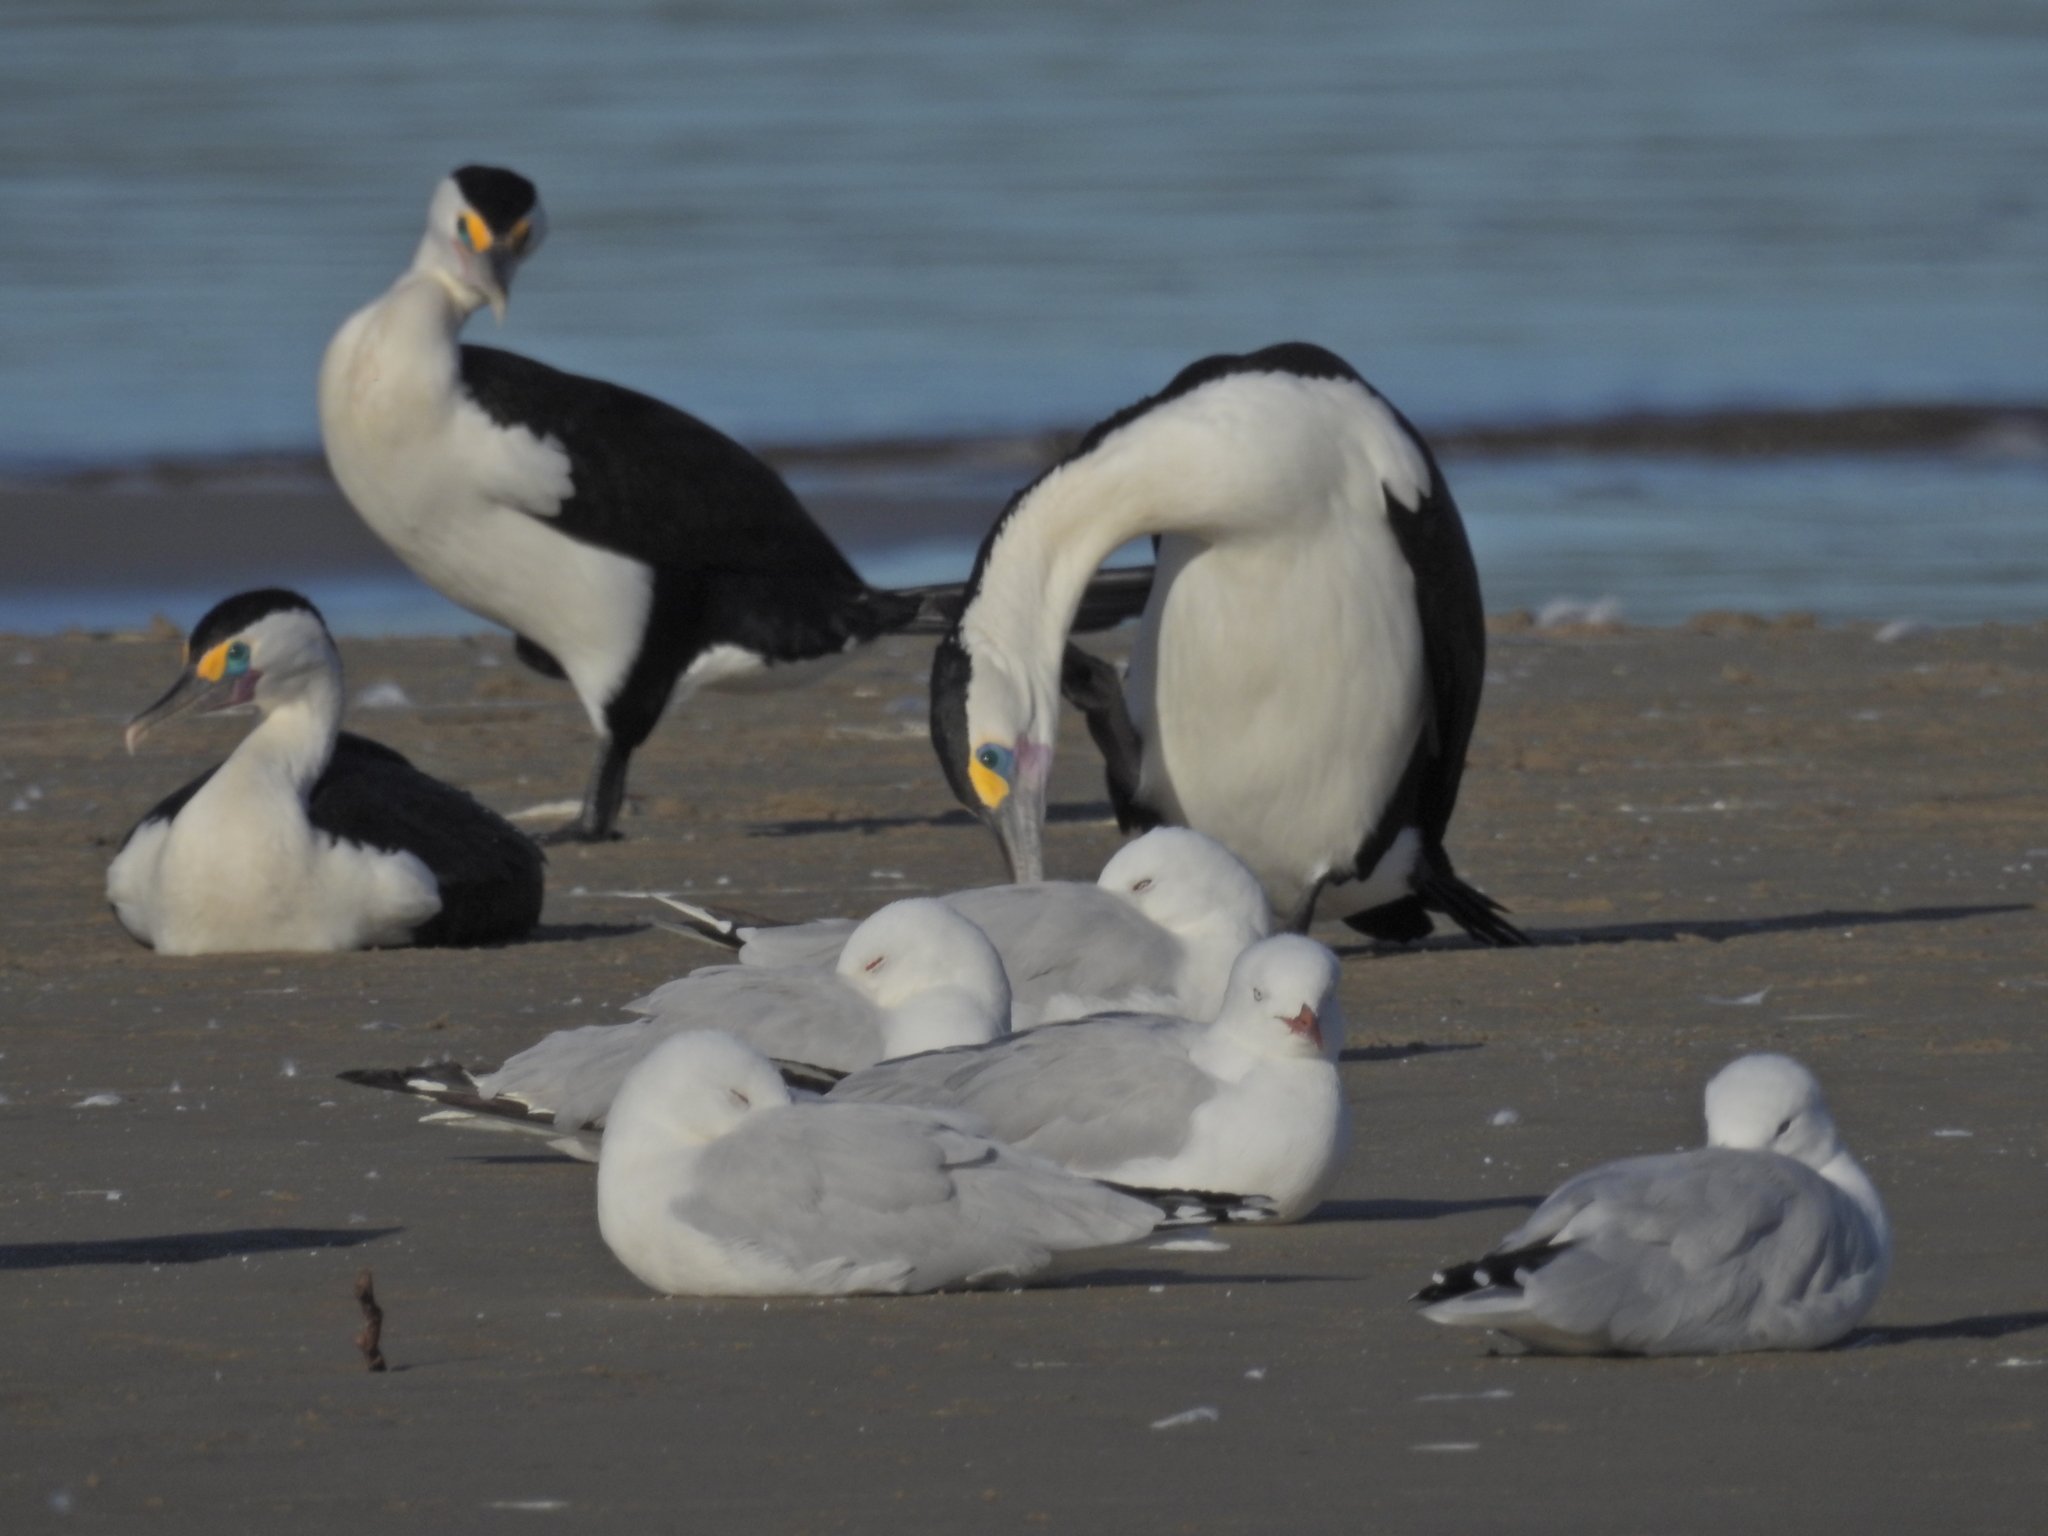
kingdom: Animalia
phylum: Chordata
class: Aves
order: Suliformes
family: Phalacrocoracidae
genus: Phalacrocorax
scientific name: Phalacrocorax varius
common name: Pied cormorant
